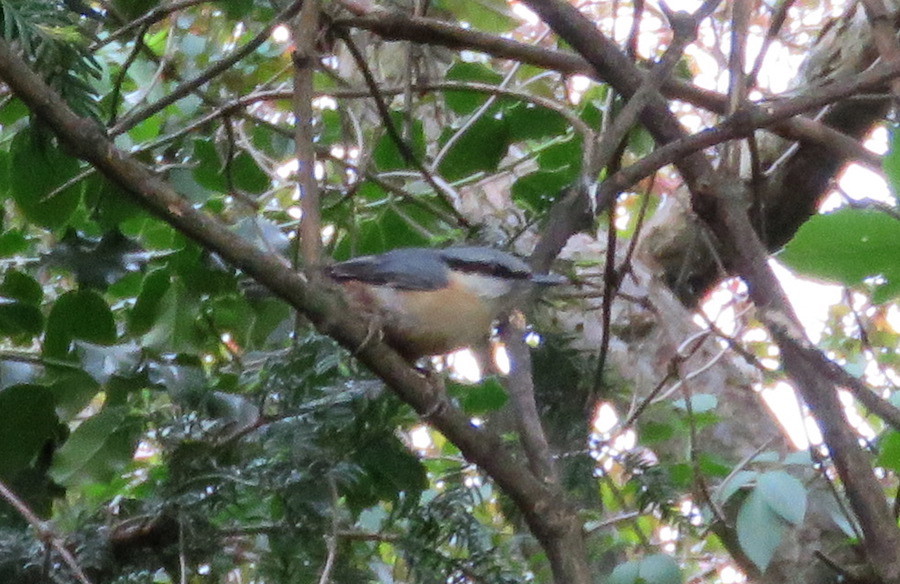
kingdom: Animalia
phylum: Chordata
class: Aves
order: Passeriformes
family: Sittidae
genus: Sitta
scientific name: Sitta europaea
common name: Eurasian nuthatch
